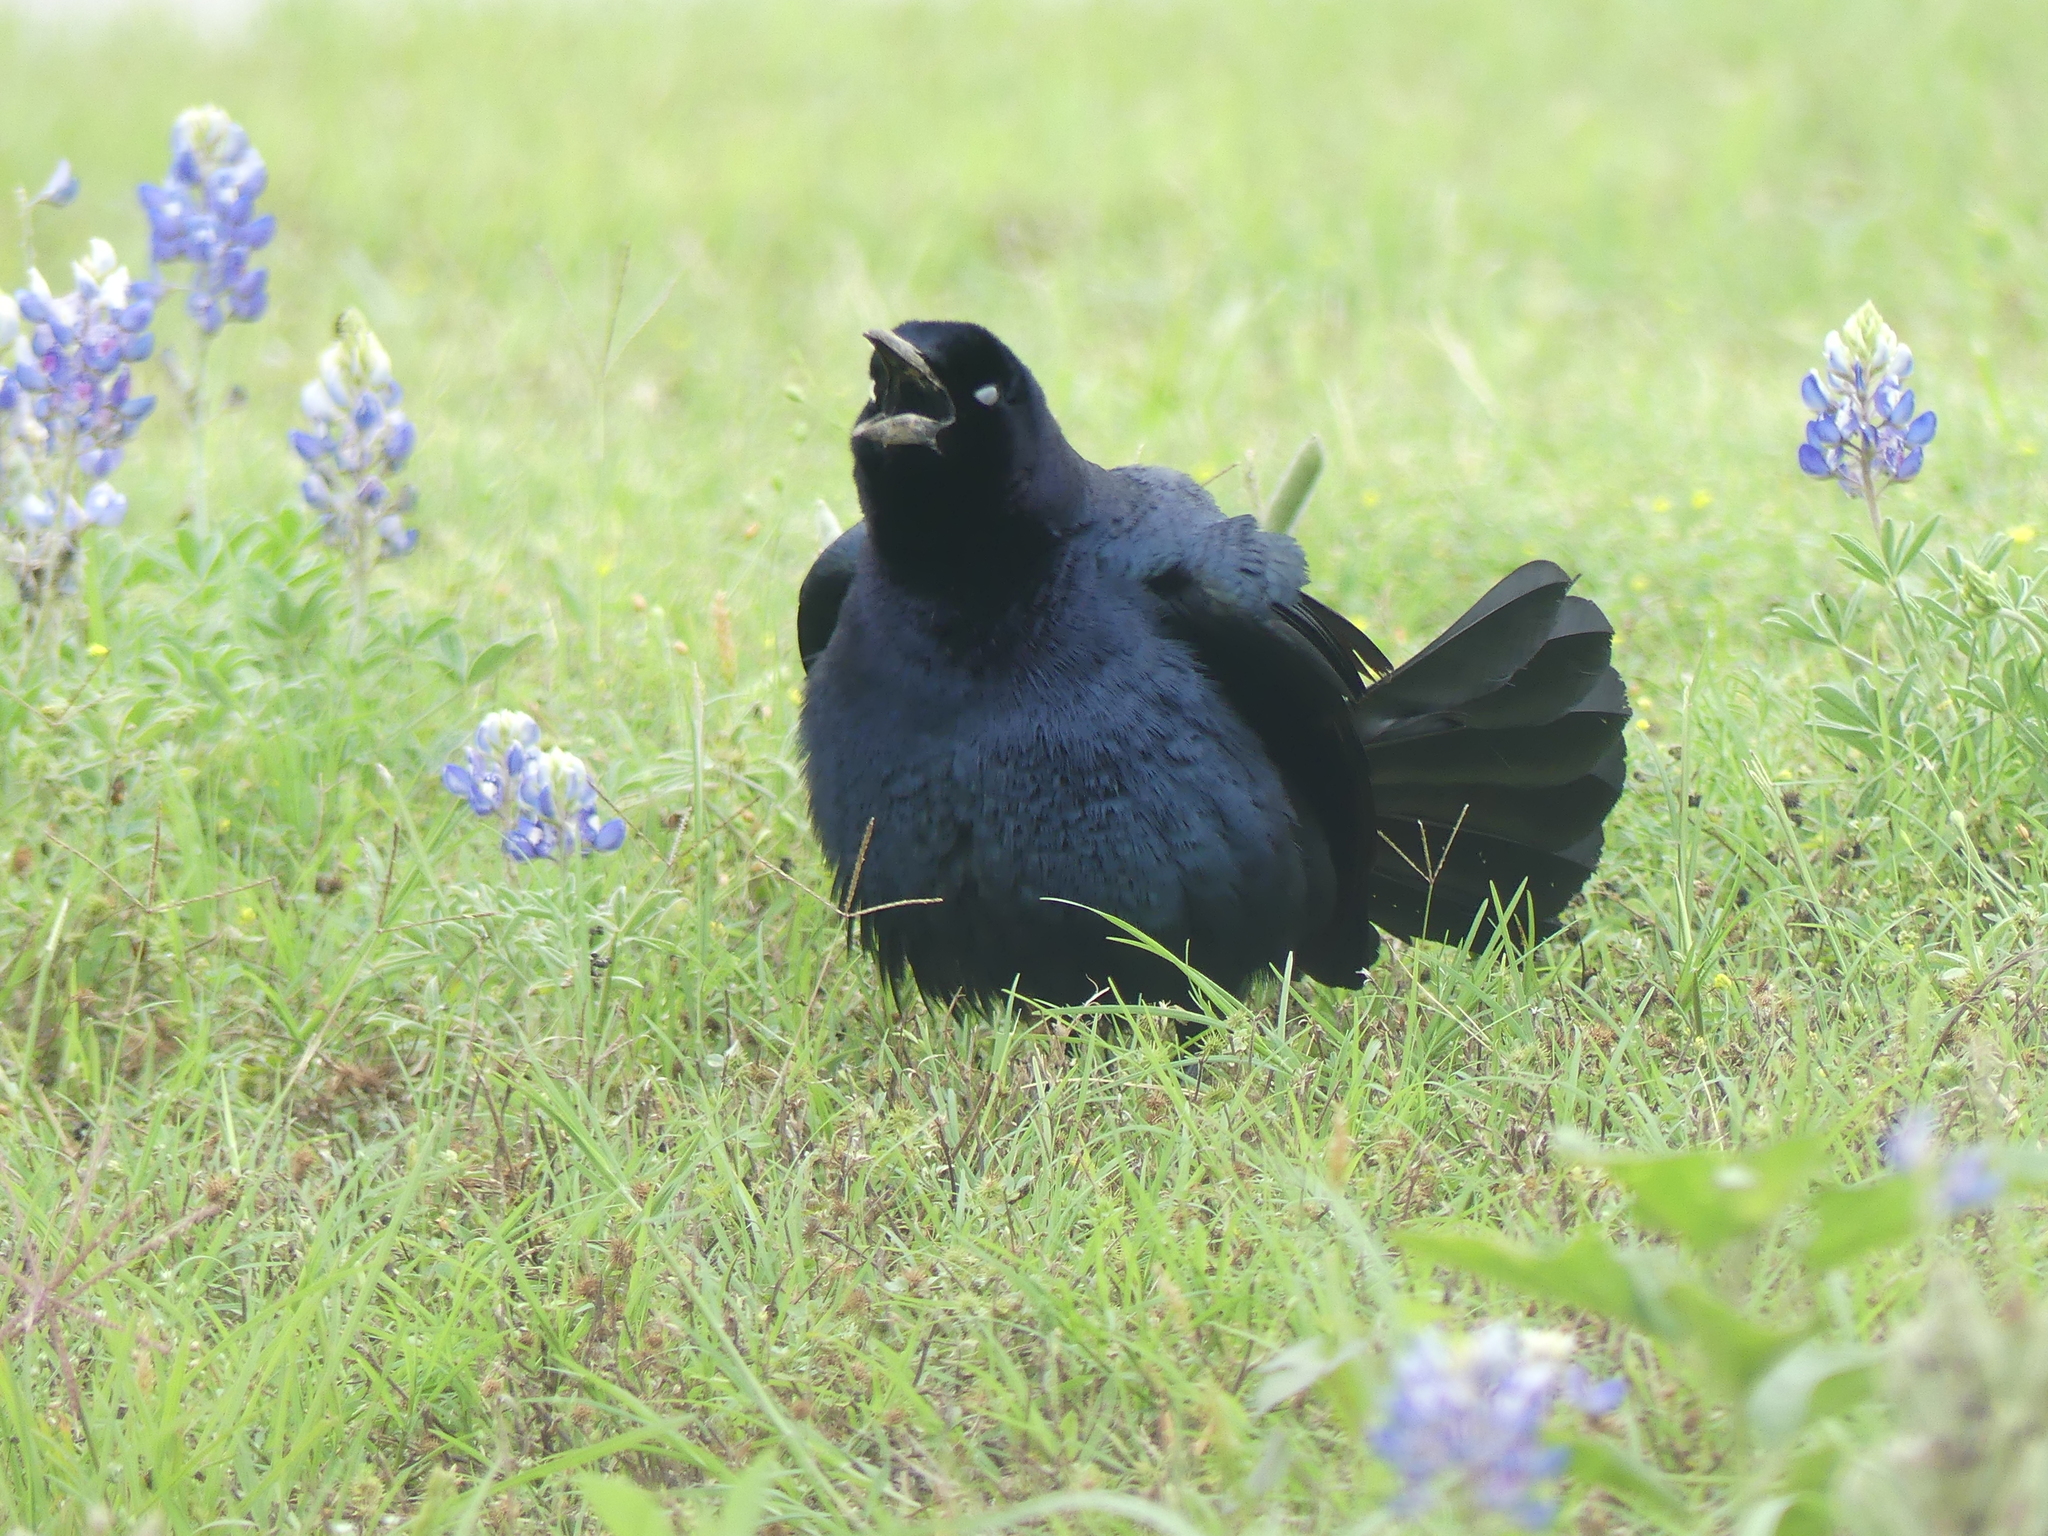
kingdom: Animalia
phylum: Chordata
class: Aves
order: Passeriformes
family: Icteridae
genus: Quiscalus
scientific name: Quiscalus mexicanus
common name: Great-tailed grackle
